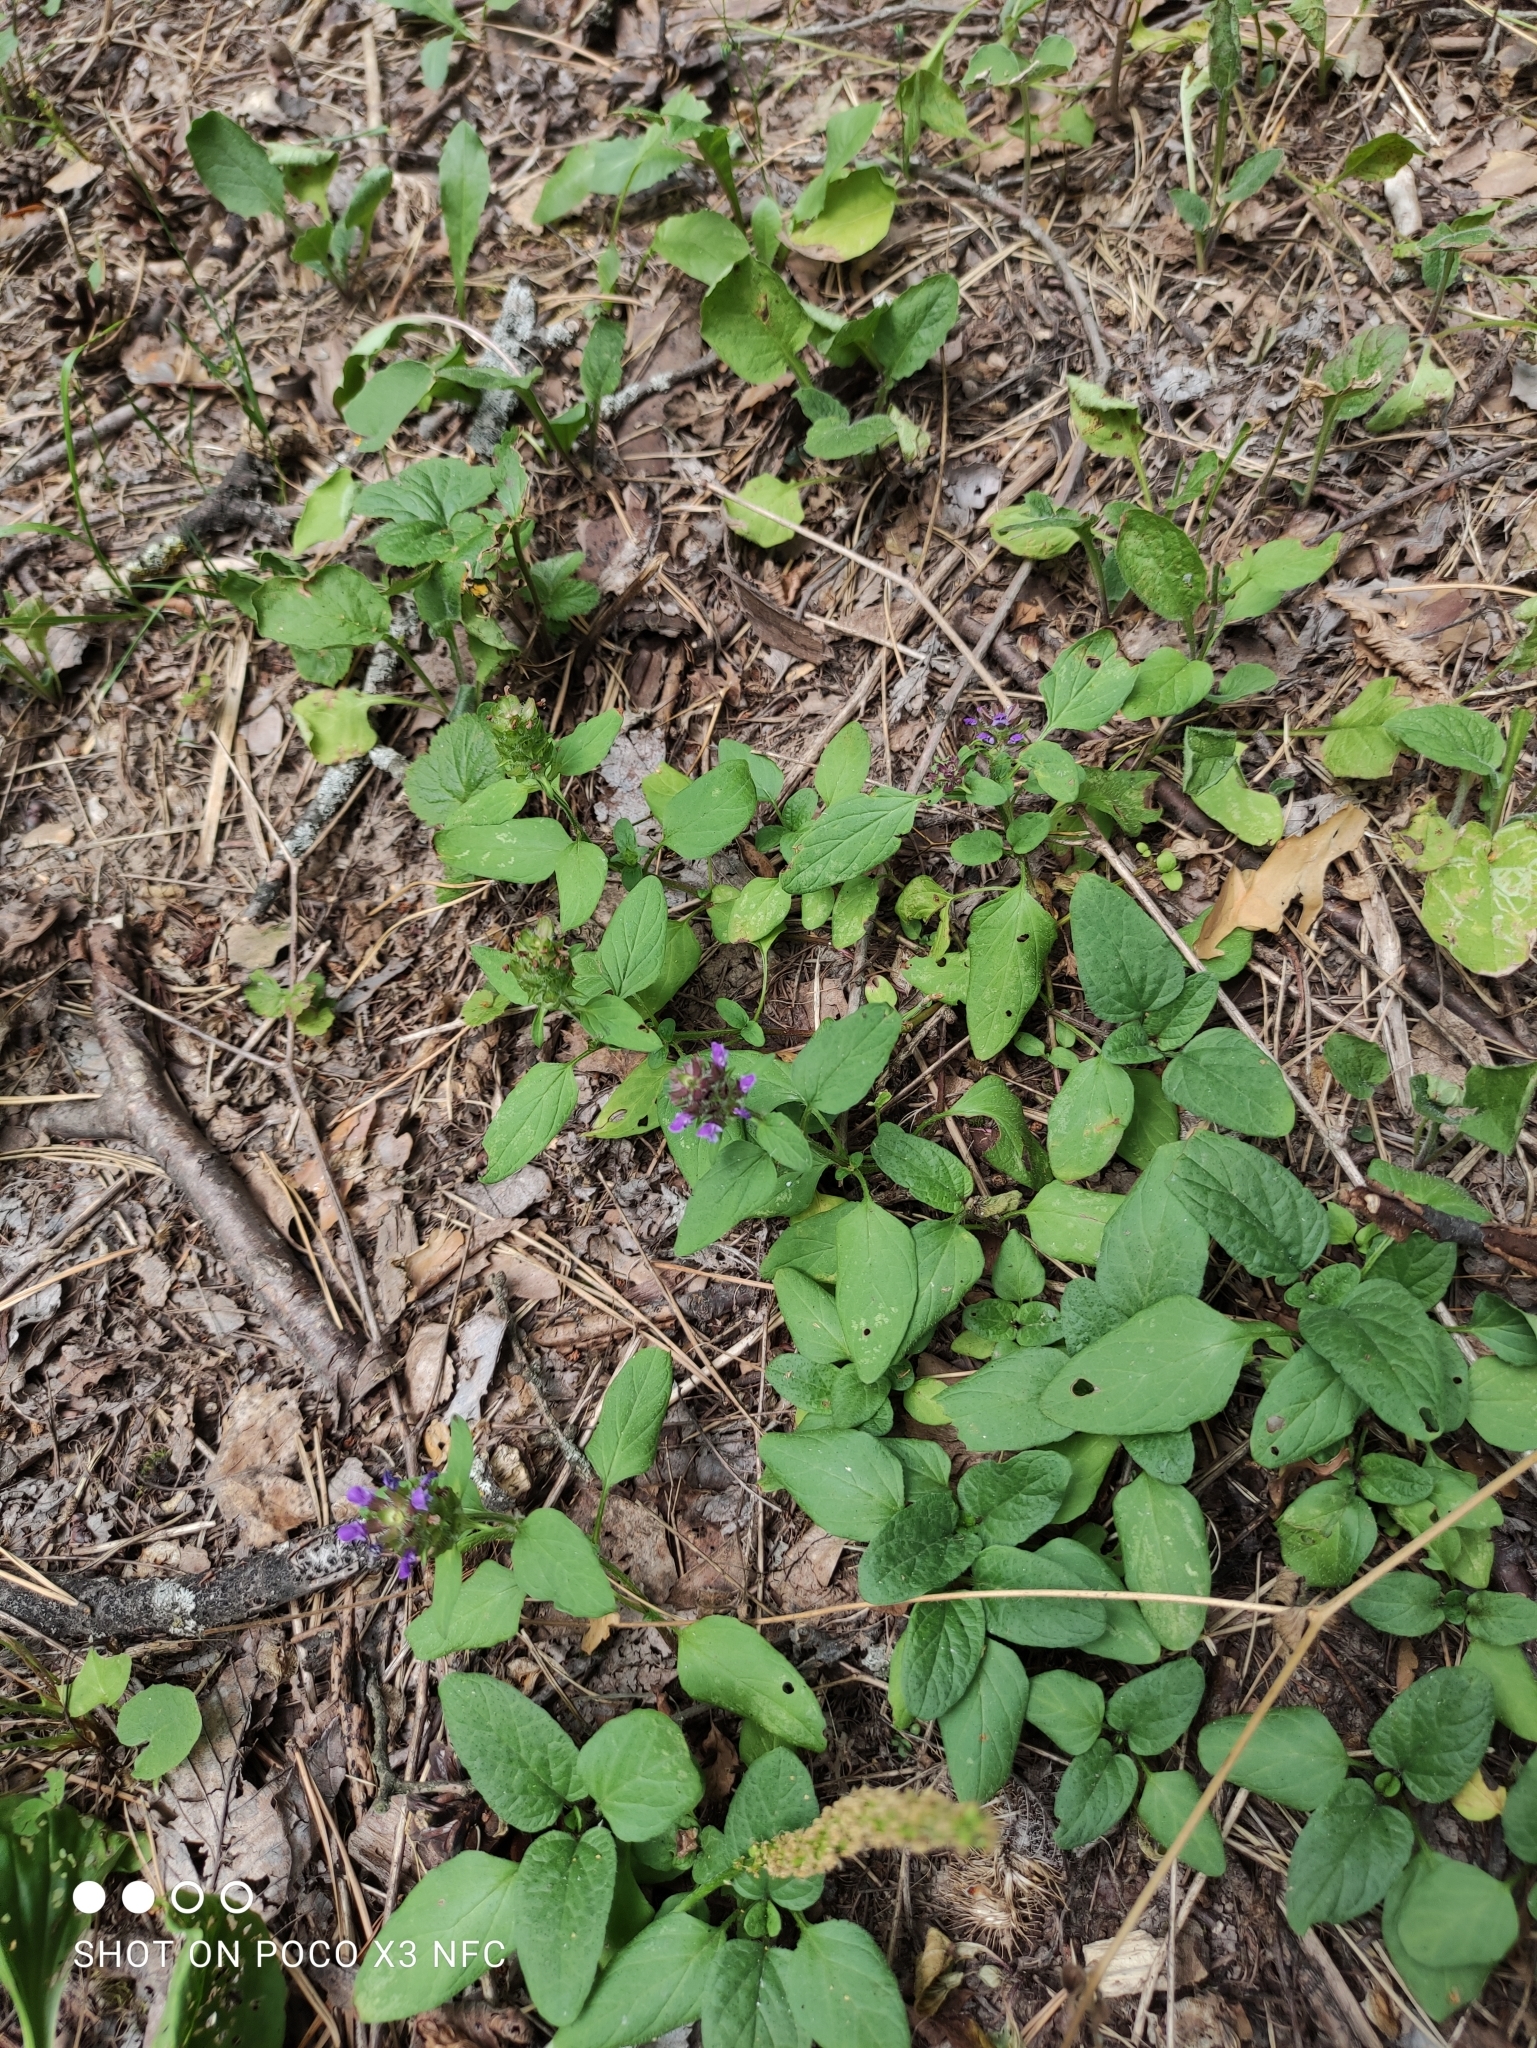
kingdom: Plantae
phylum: Tracheophyta
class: Magnoliopsida
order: Lamiales
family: Lamiaceae
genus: Prunella
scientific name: Prunella vulgaris
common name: Heal-all
